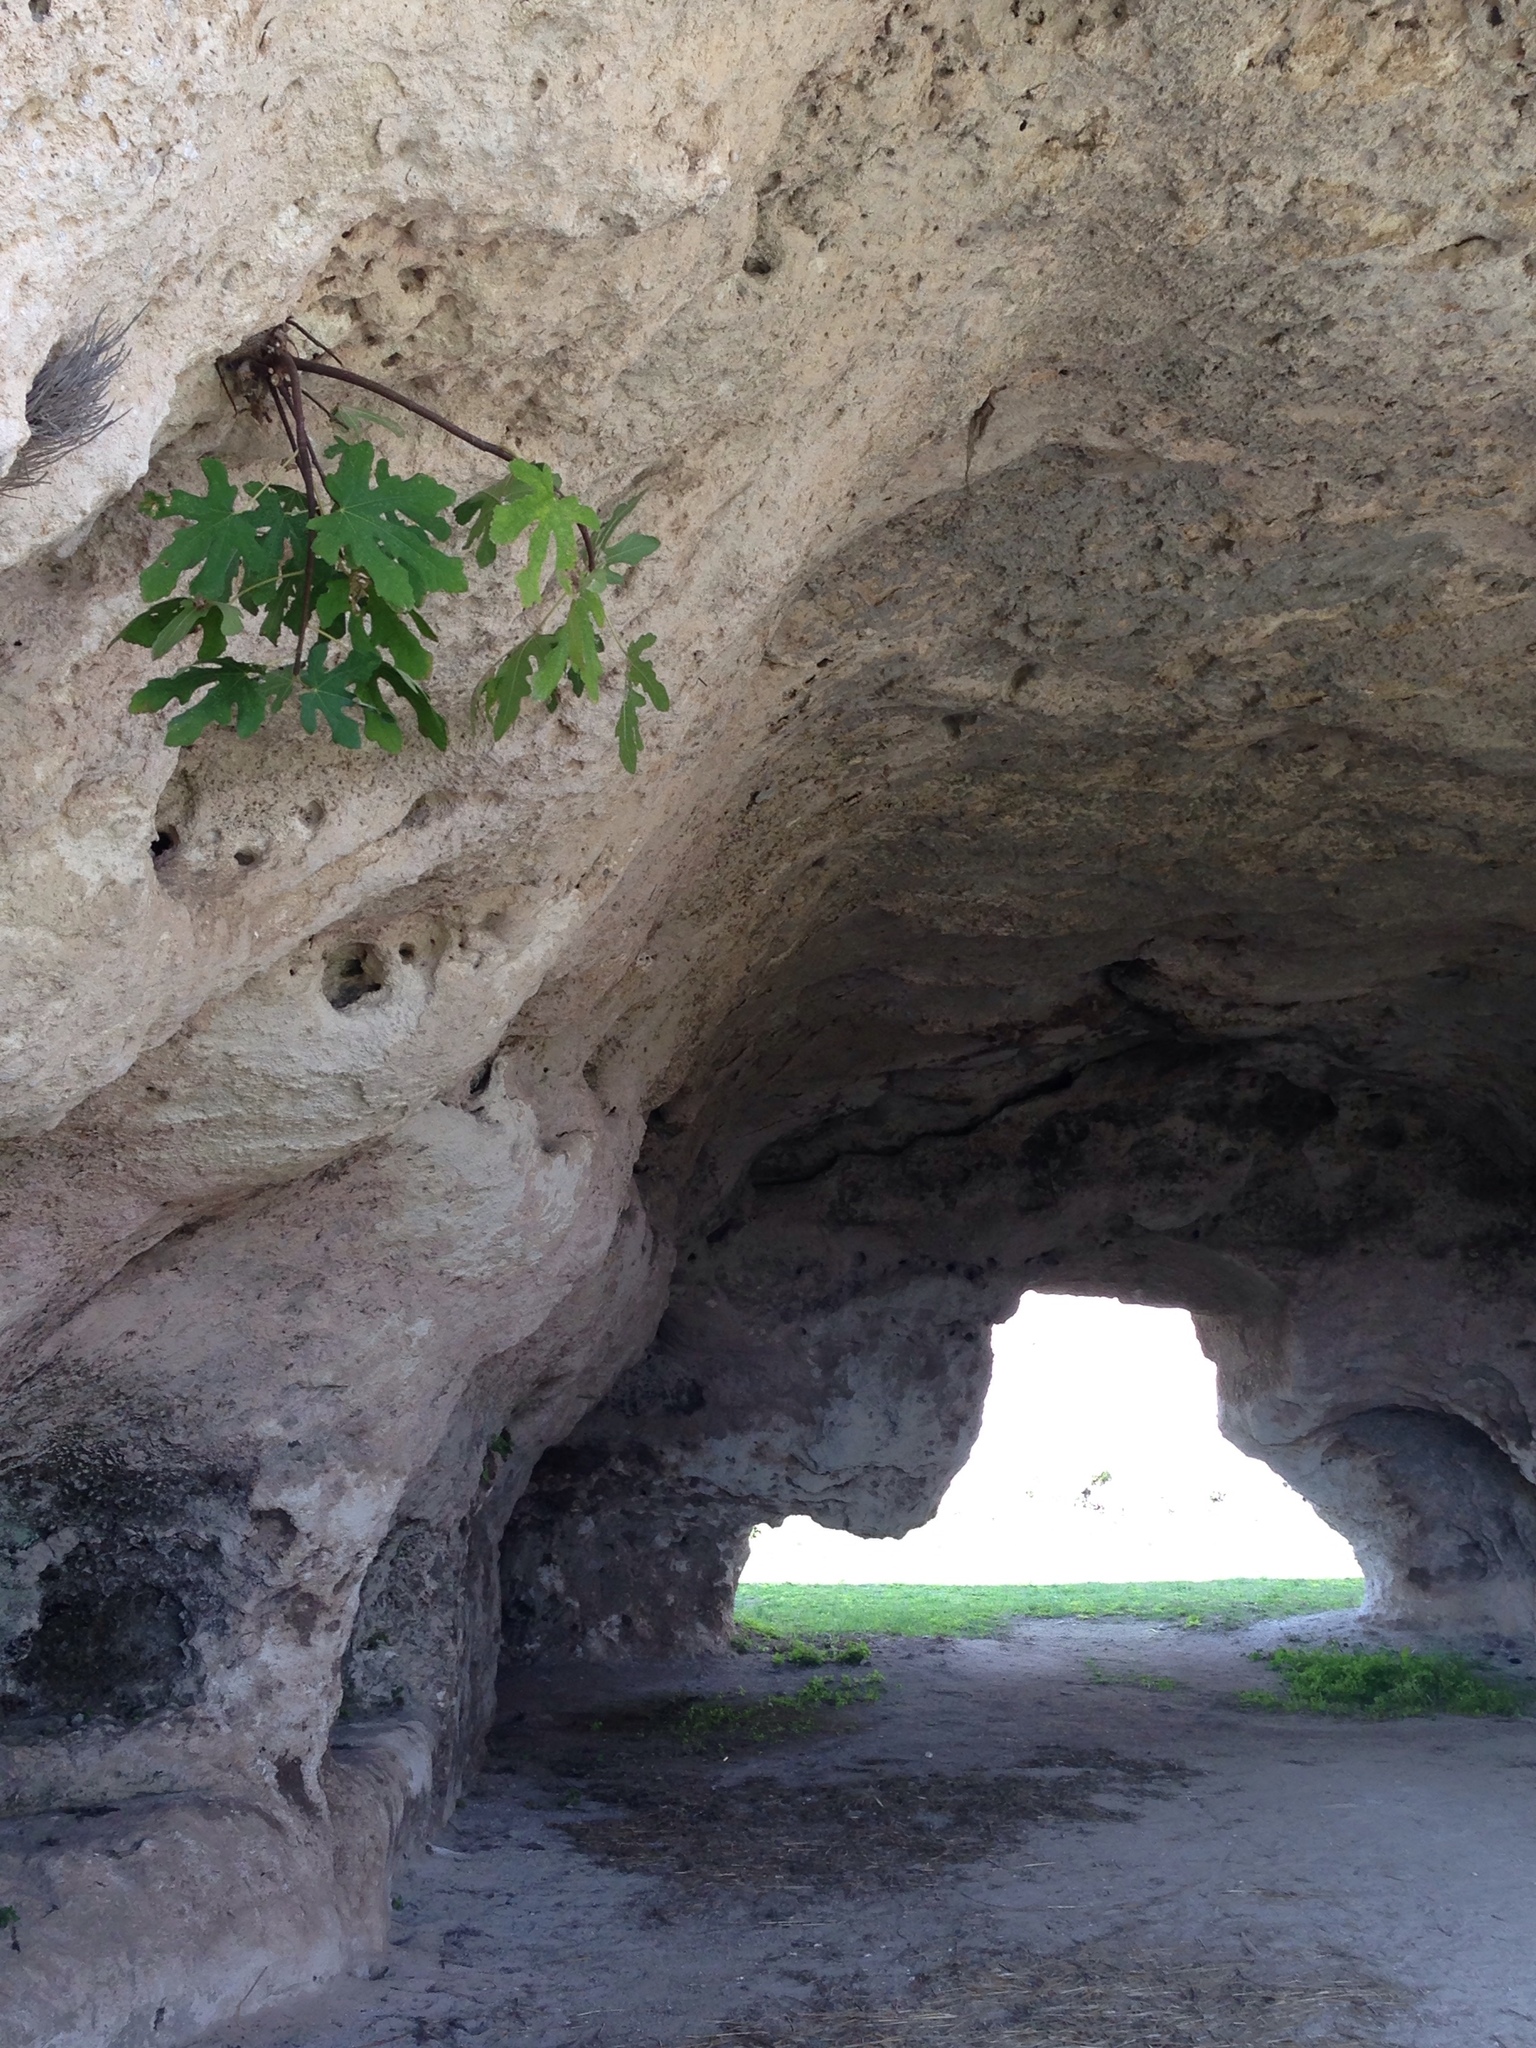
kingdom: Plantae
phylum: Tracheophyta
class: Magnoliopsida
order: Rosales
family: Moraceae
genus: Ficus
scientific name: Ficus carica
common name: Fig
